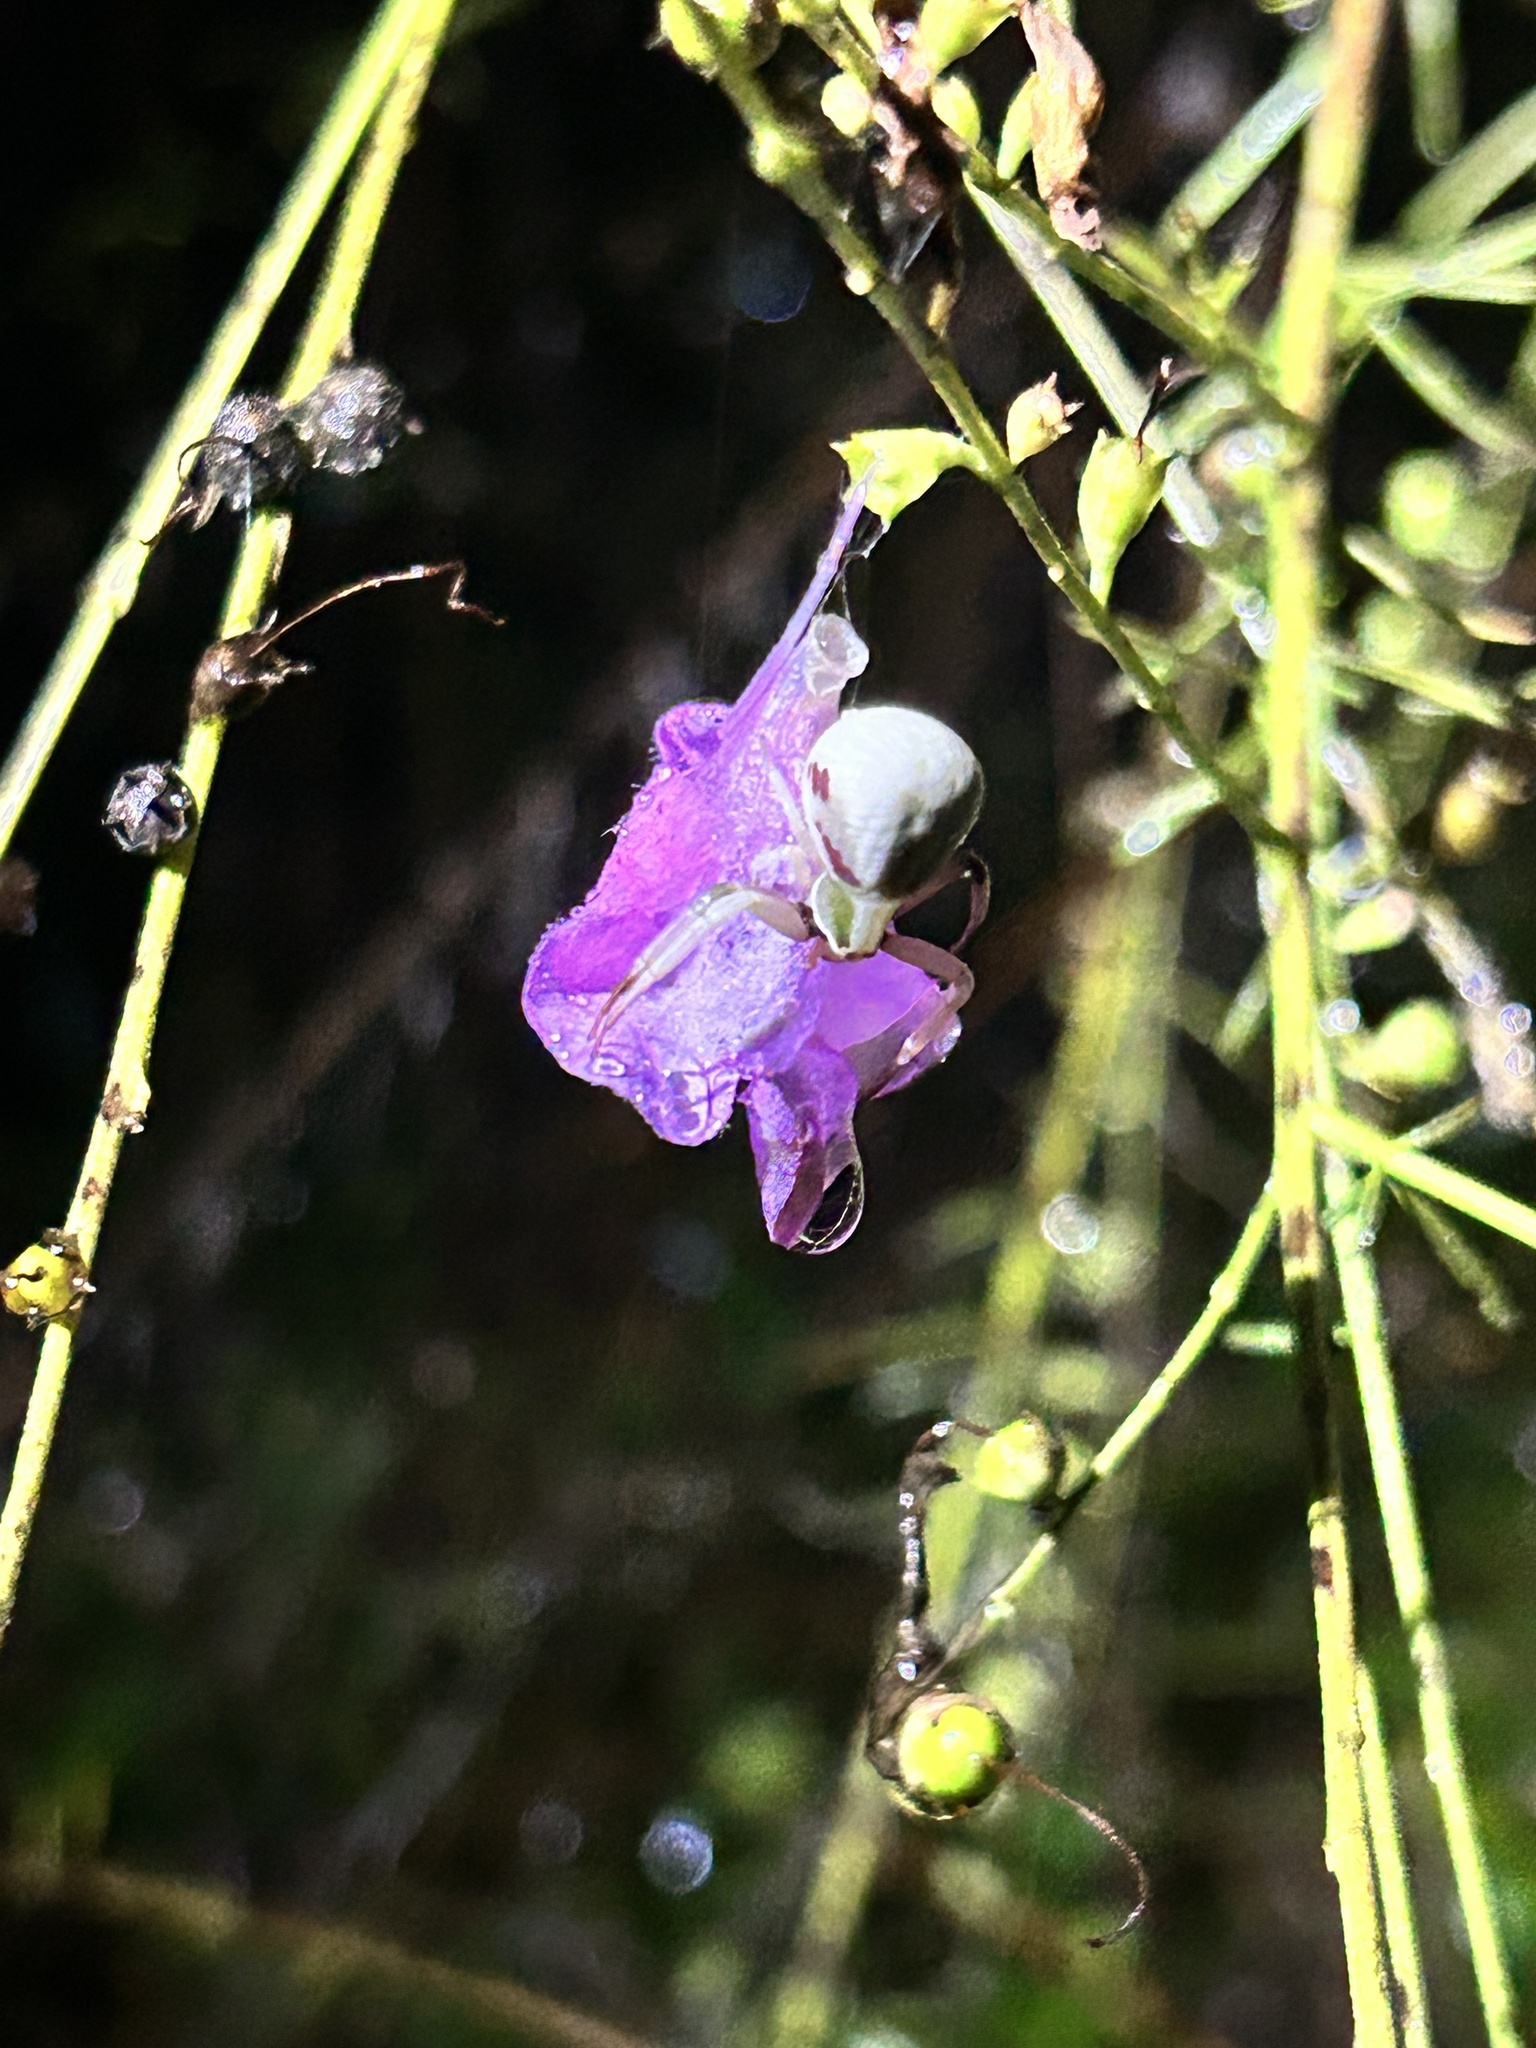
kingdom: Animalia
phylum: Arthropoda
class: Arachnida
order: Araneae
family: Thomisidae
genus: Misumenoides
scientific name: Misumenoides formosipes
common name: White-banded crab spider
